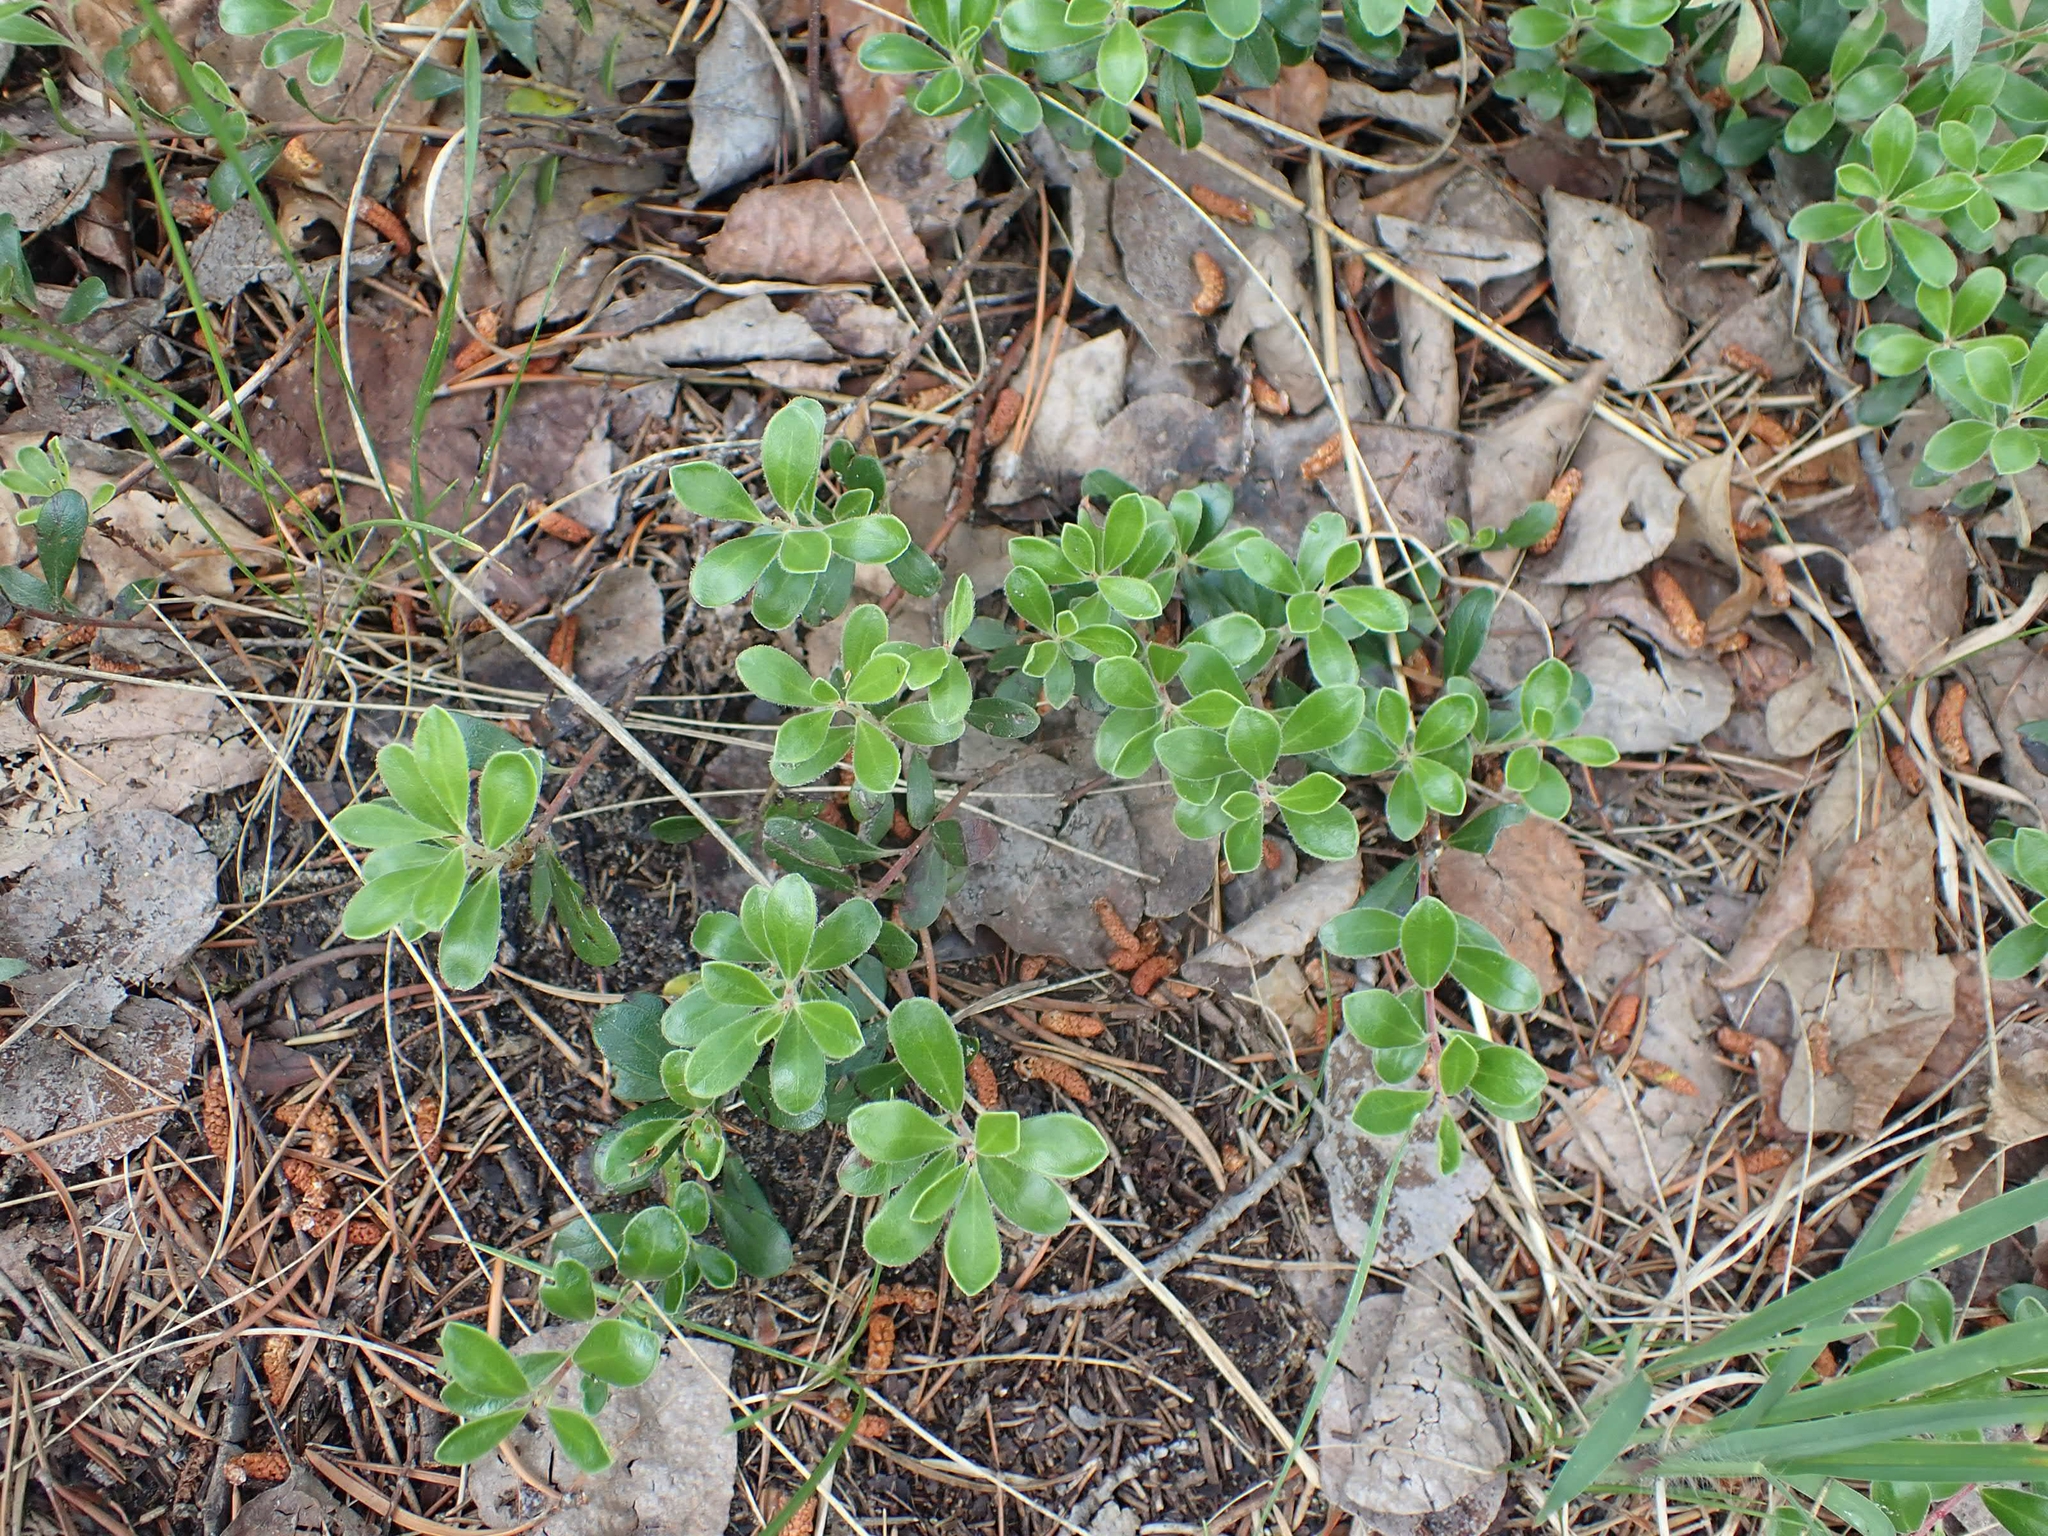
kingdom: Plantae
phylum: Tracheophyta
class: Magnoliopsida
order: Ericales
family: Ericaceae
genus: Arctostaphylos
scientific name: Arctostaphylos uva-ursi
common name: Bearberry
